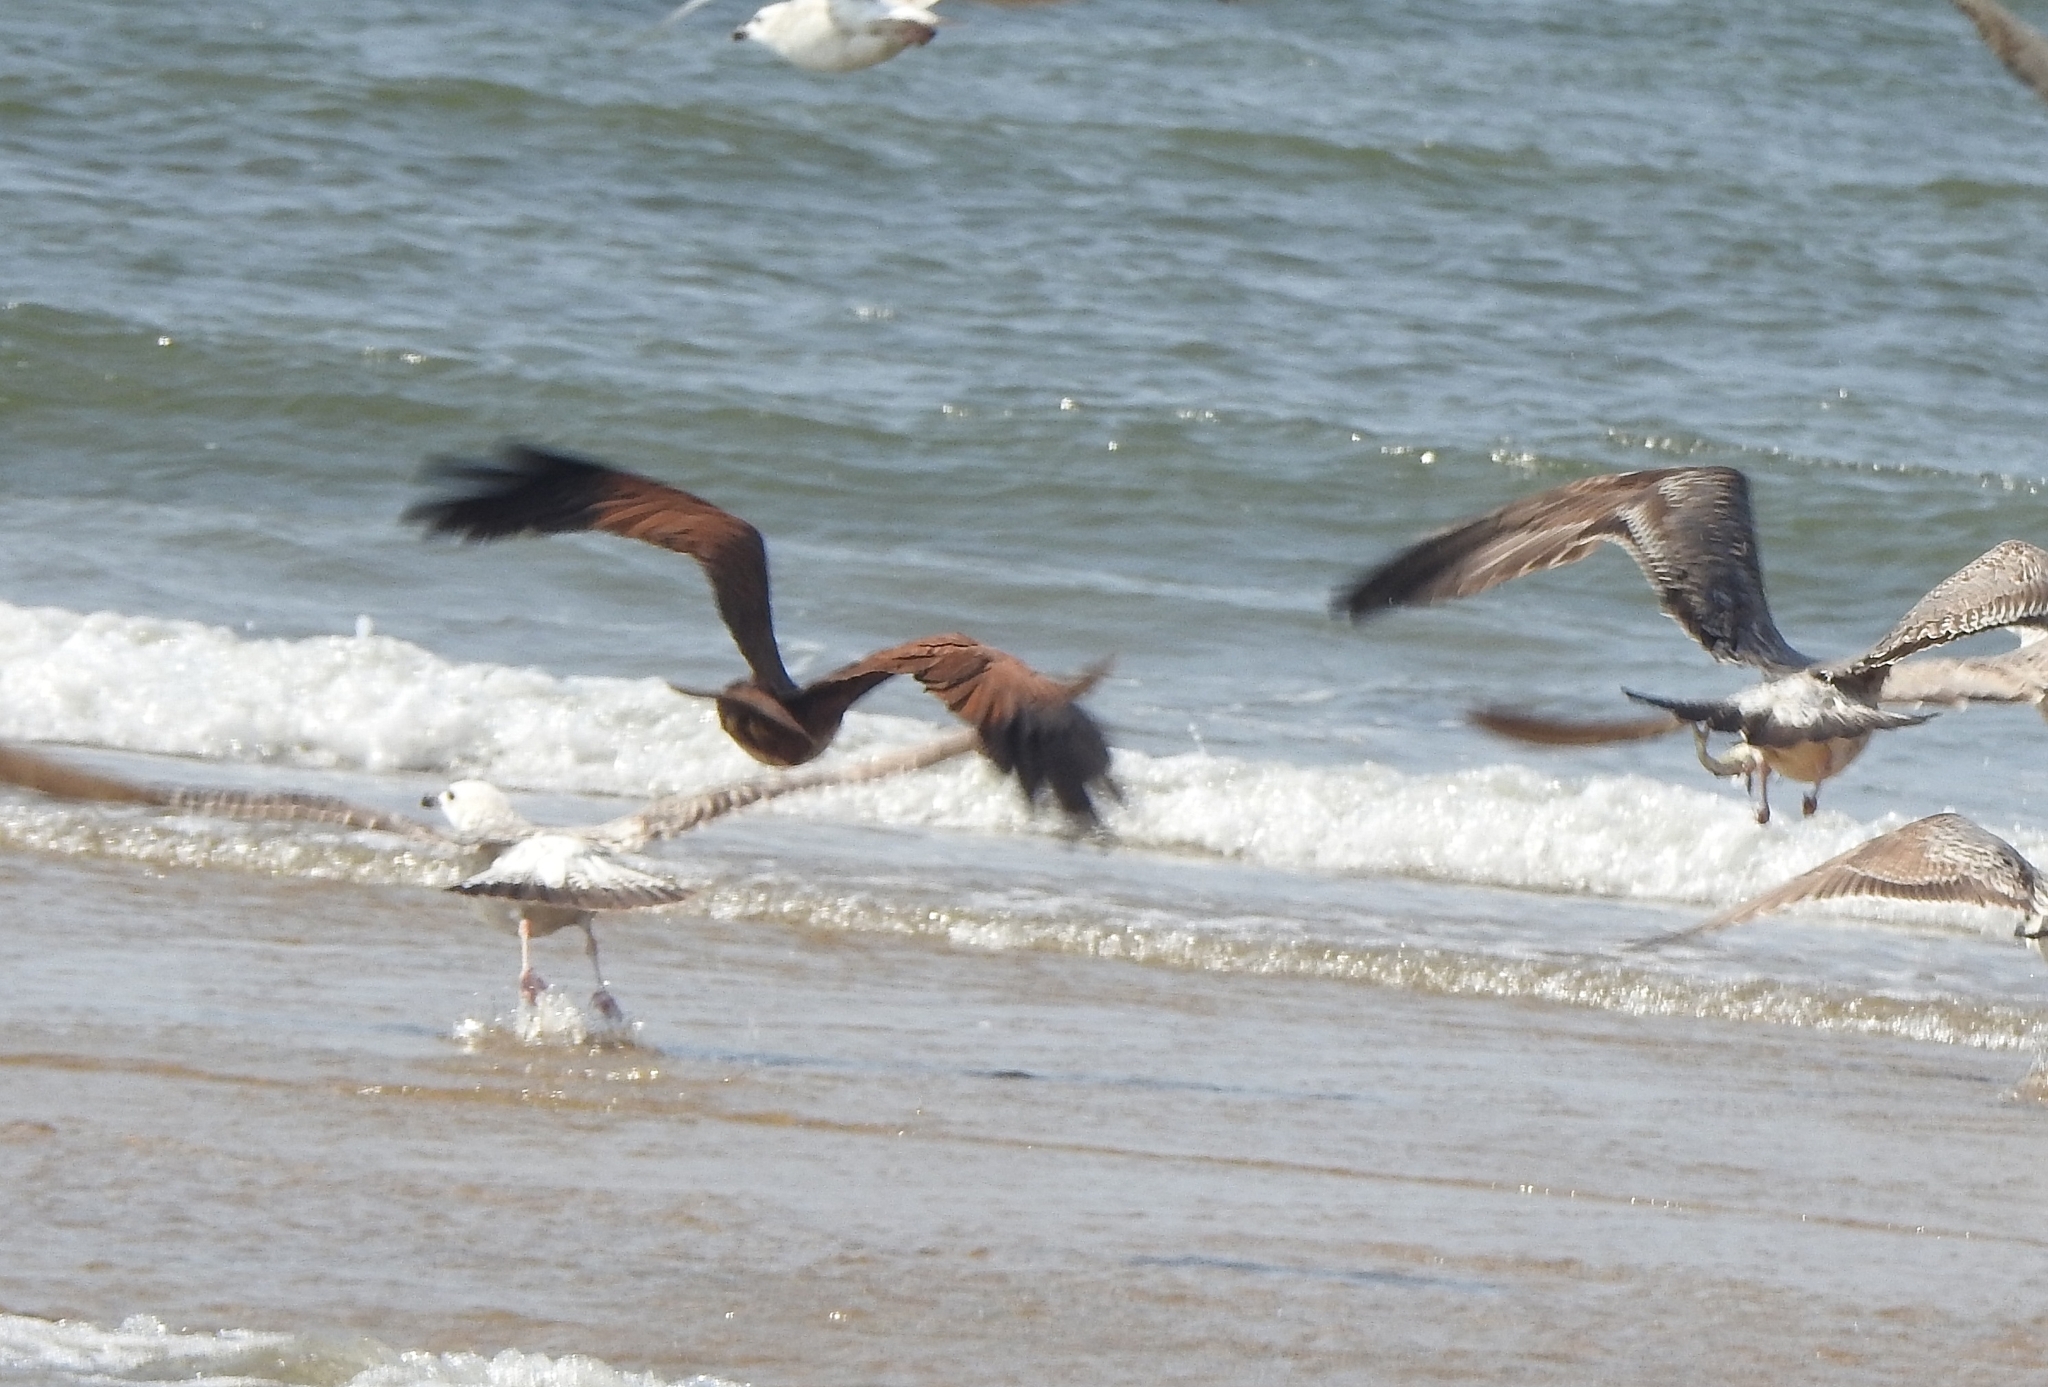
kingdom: Animalia
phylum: Chordata
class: Aves
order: Accipitriformes
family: Accipitridae
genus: Haliastur
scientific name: Haliastur indus
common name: Brahminy kite
